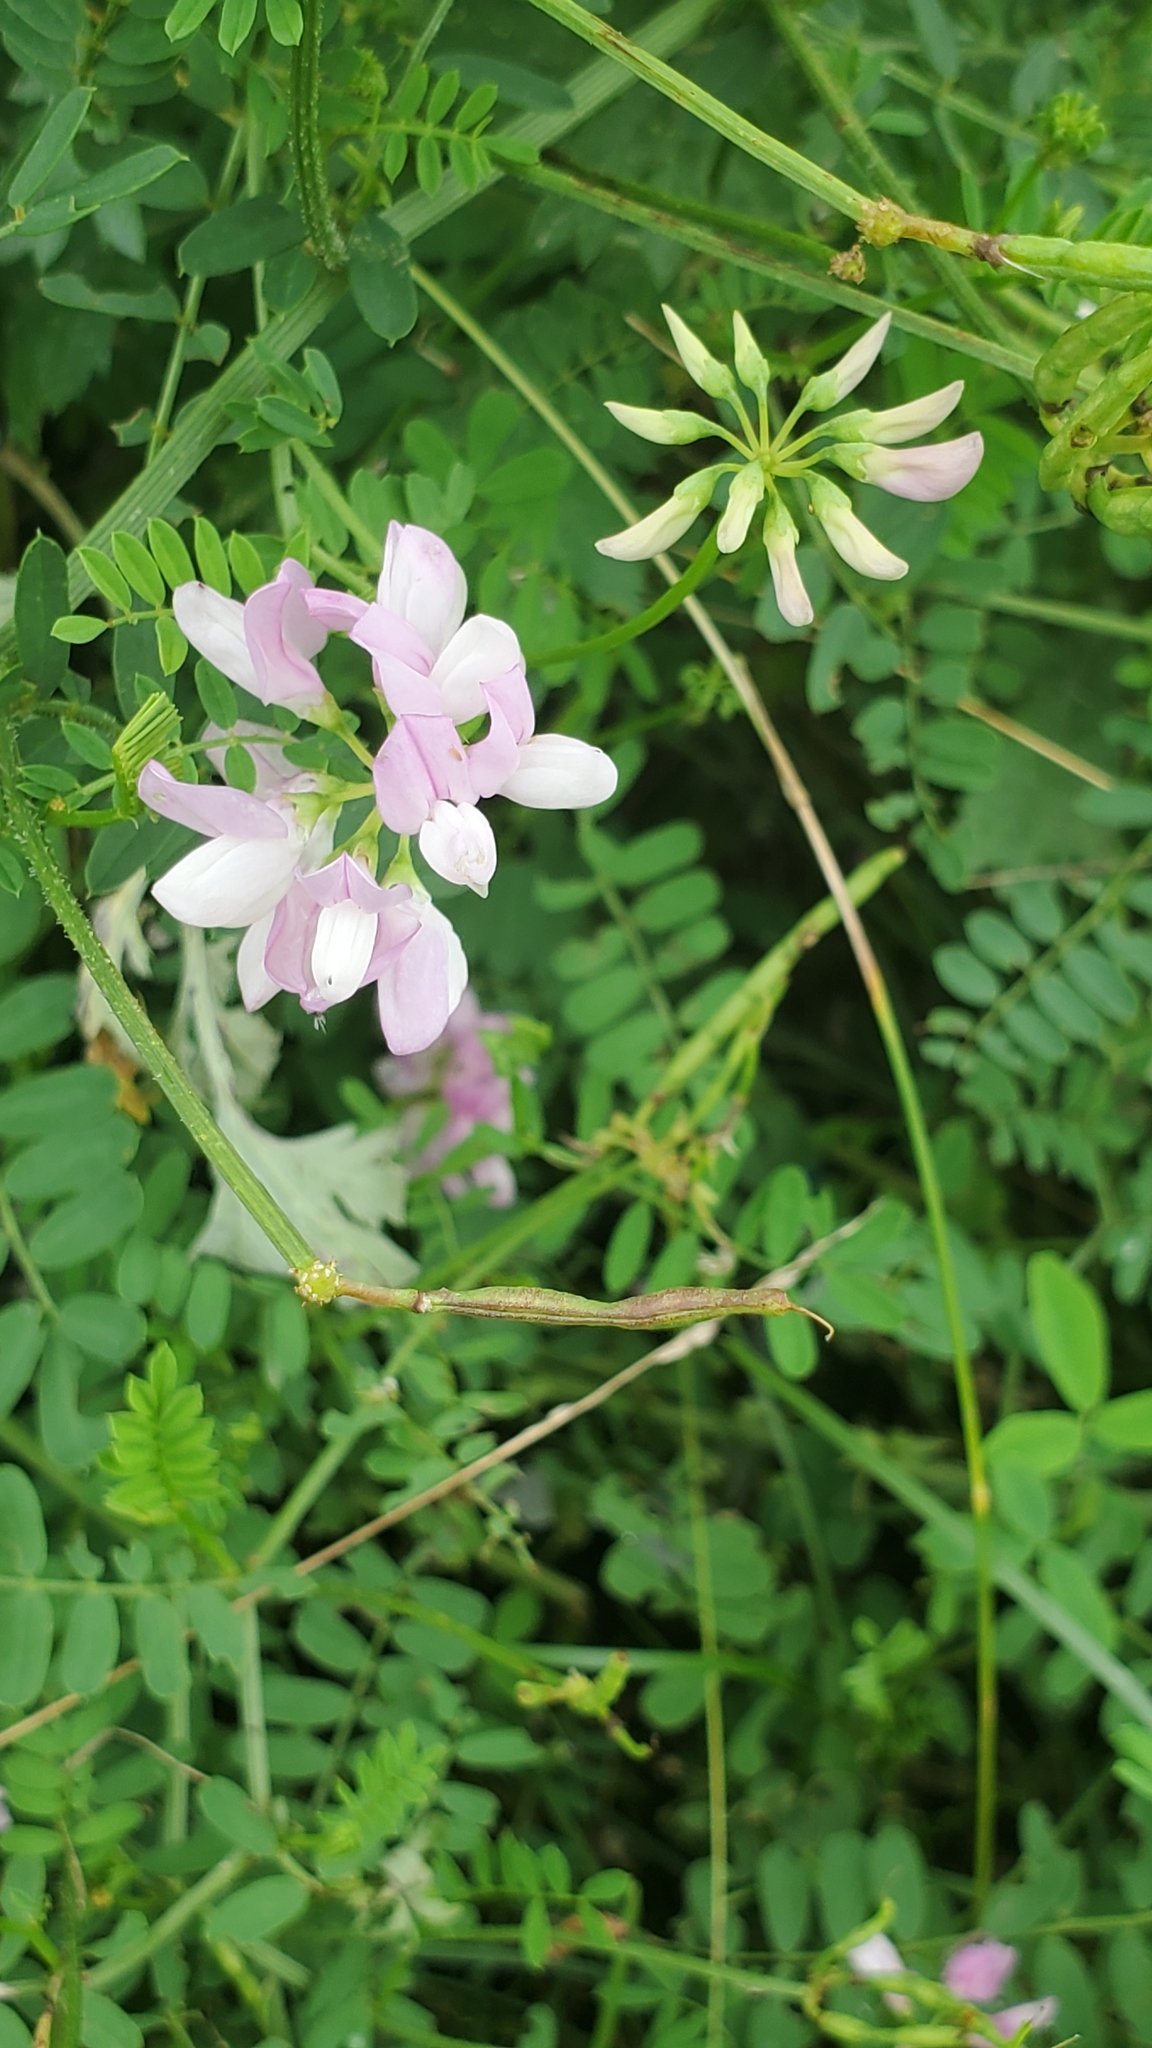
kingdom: Plantae
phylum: Tracheophyta
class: Magnoliopsida
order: Fabales
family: Fabaceae
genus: Coronilla
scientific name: Coronilla varia
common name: Crownvetch
